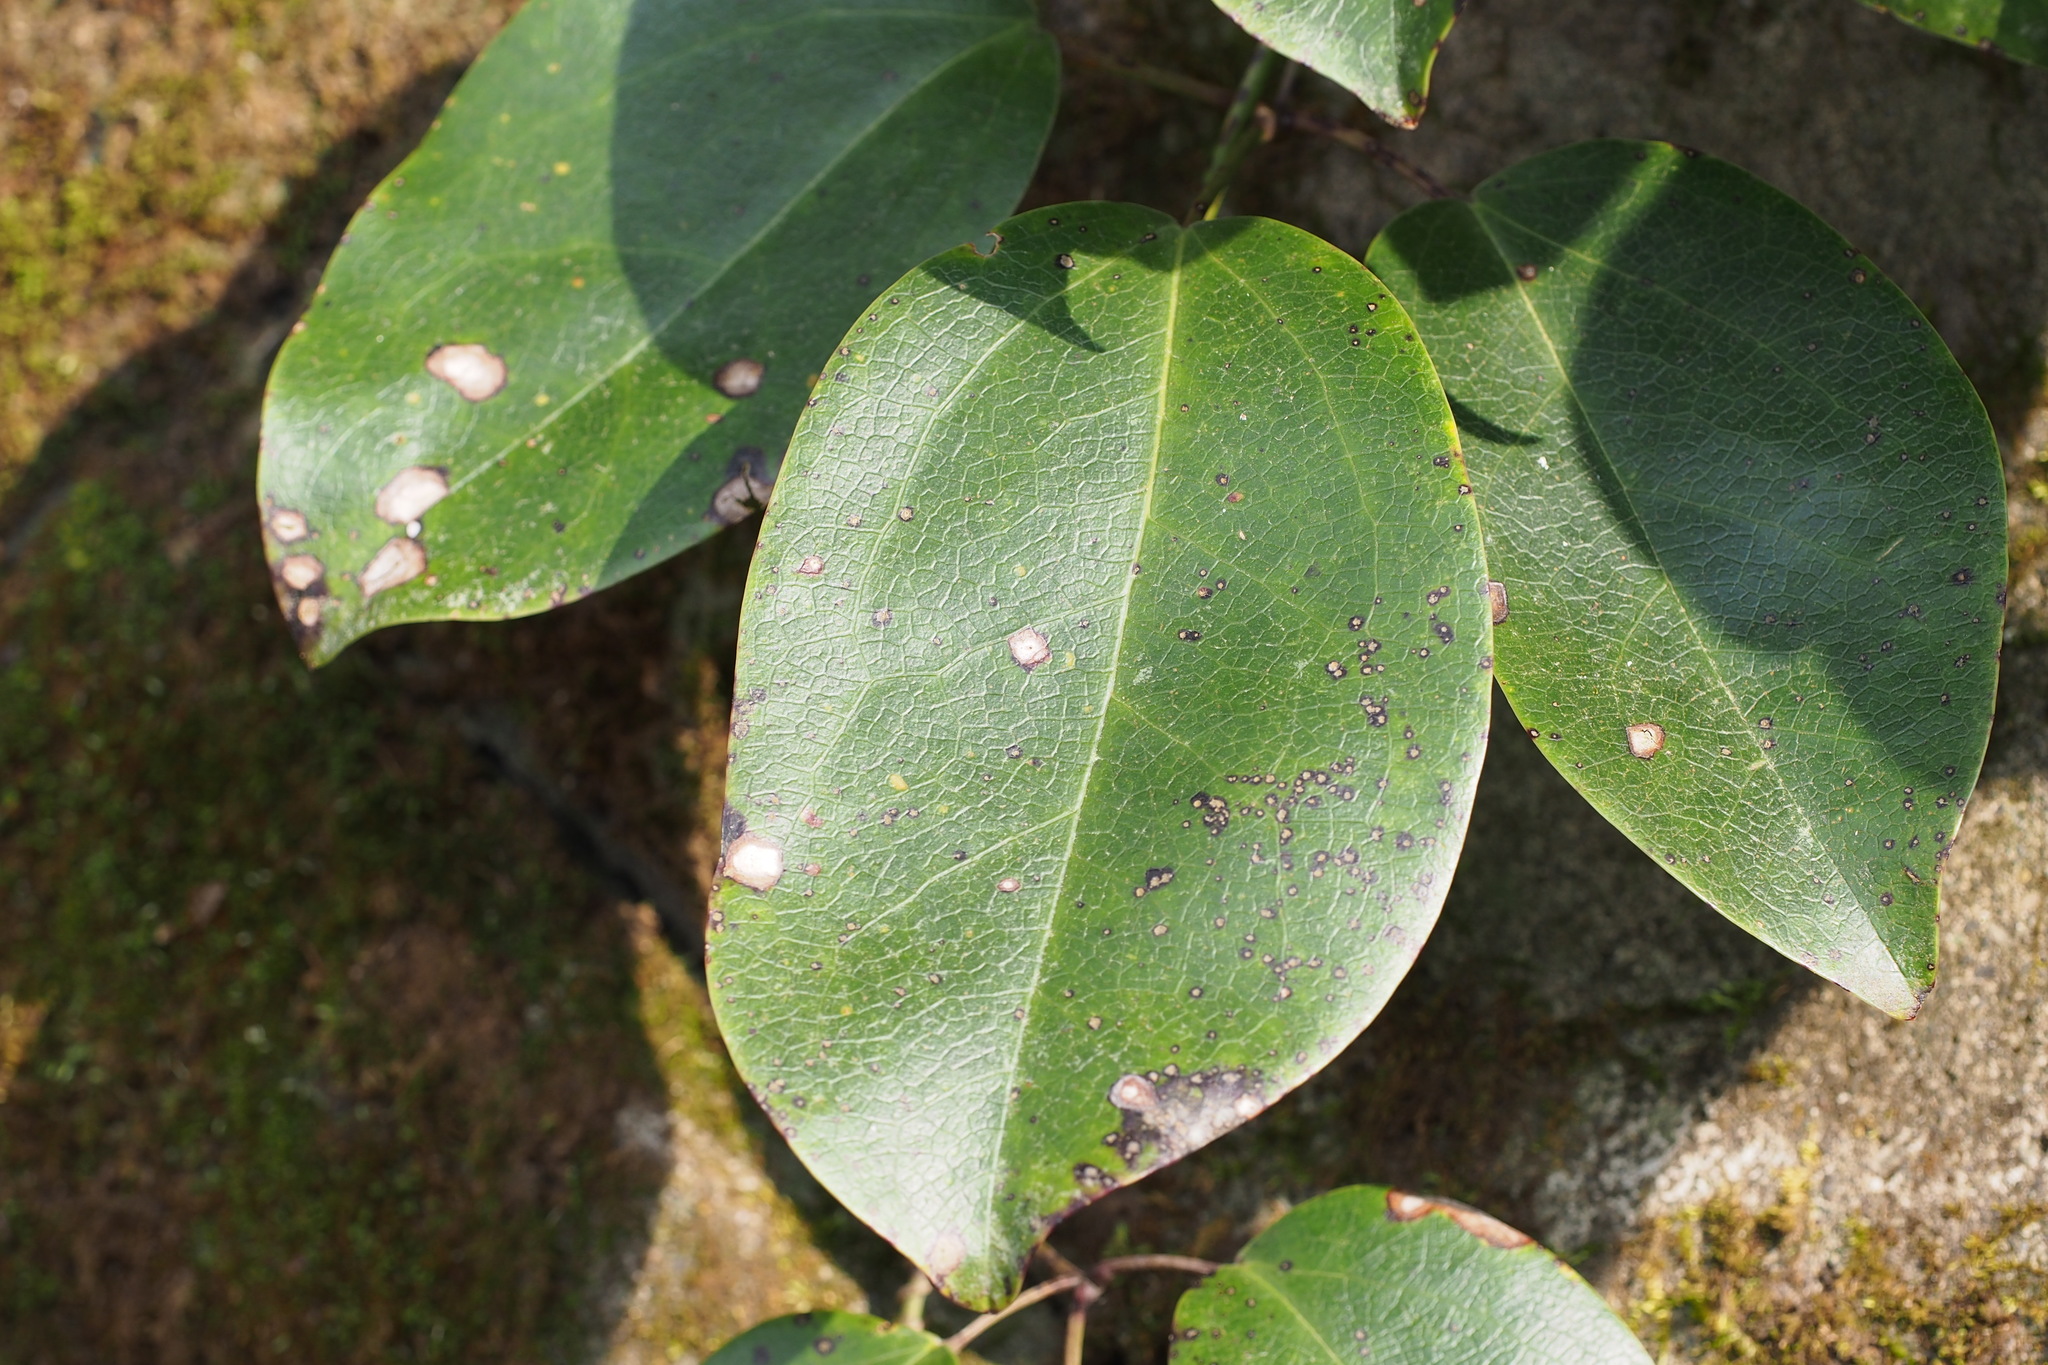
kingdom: Plantae
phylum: Tracheophyta
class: Magnoliopsida
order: Ranunculales
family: Lardizabalaceae
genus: Stauntonia
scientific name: Stauntonia hexaphylla
